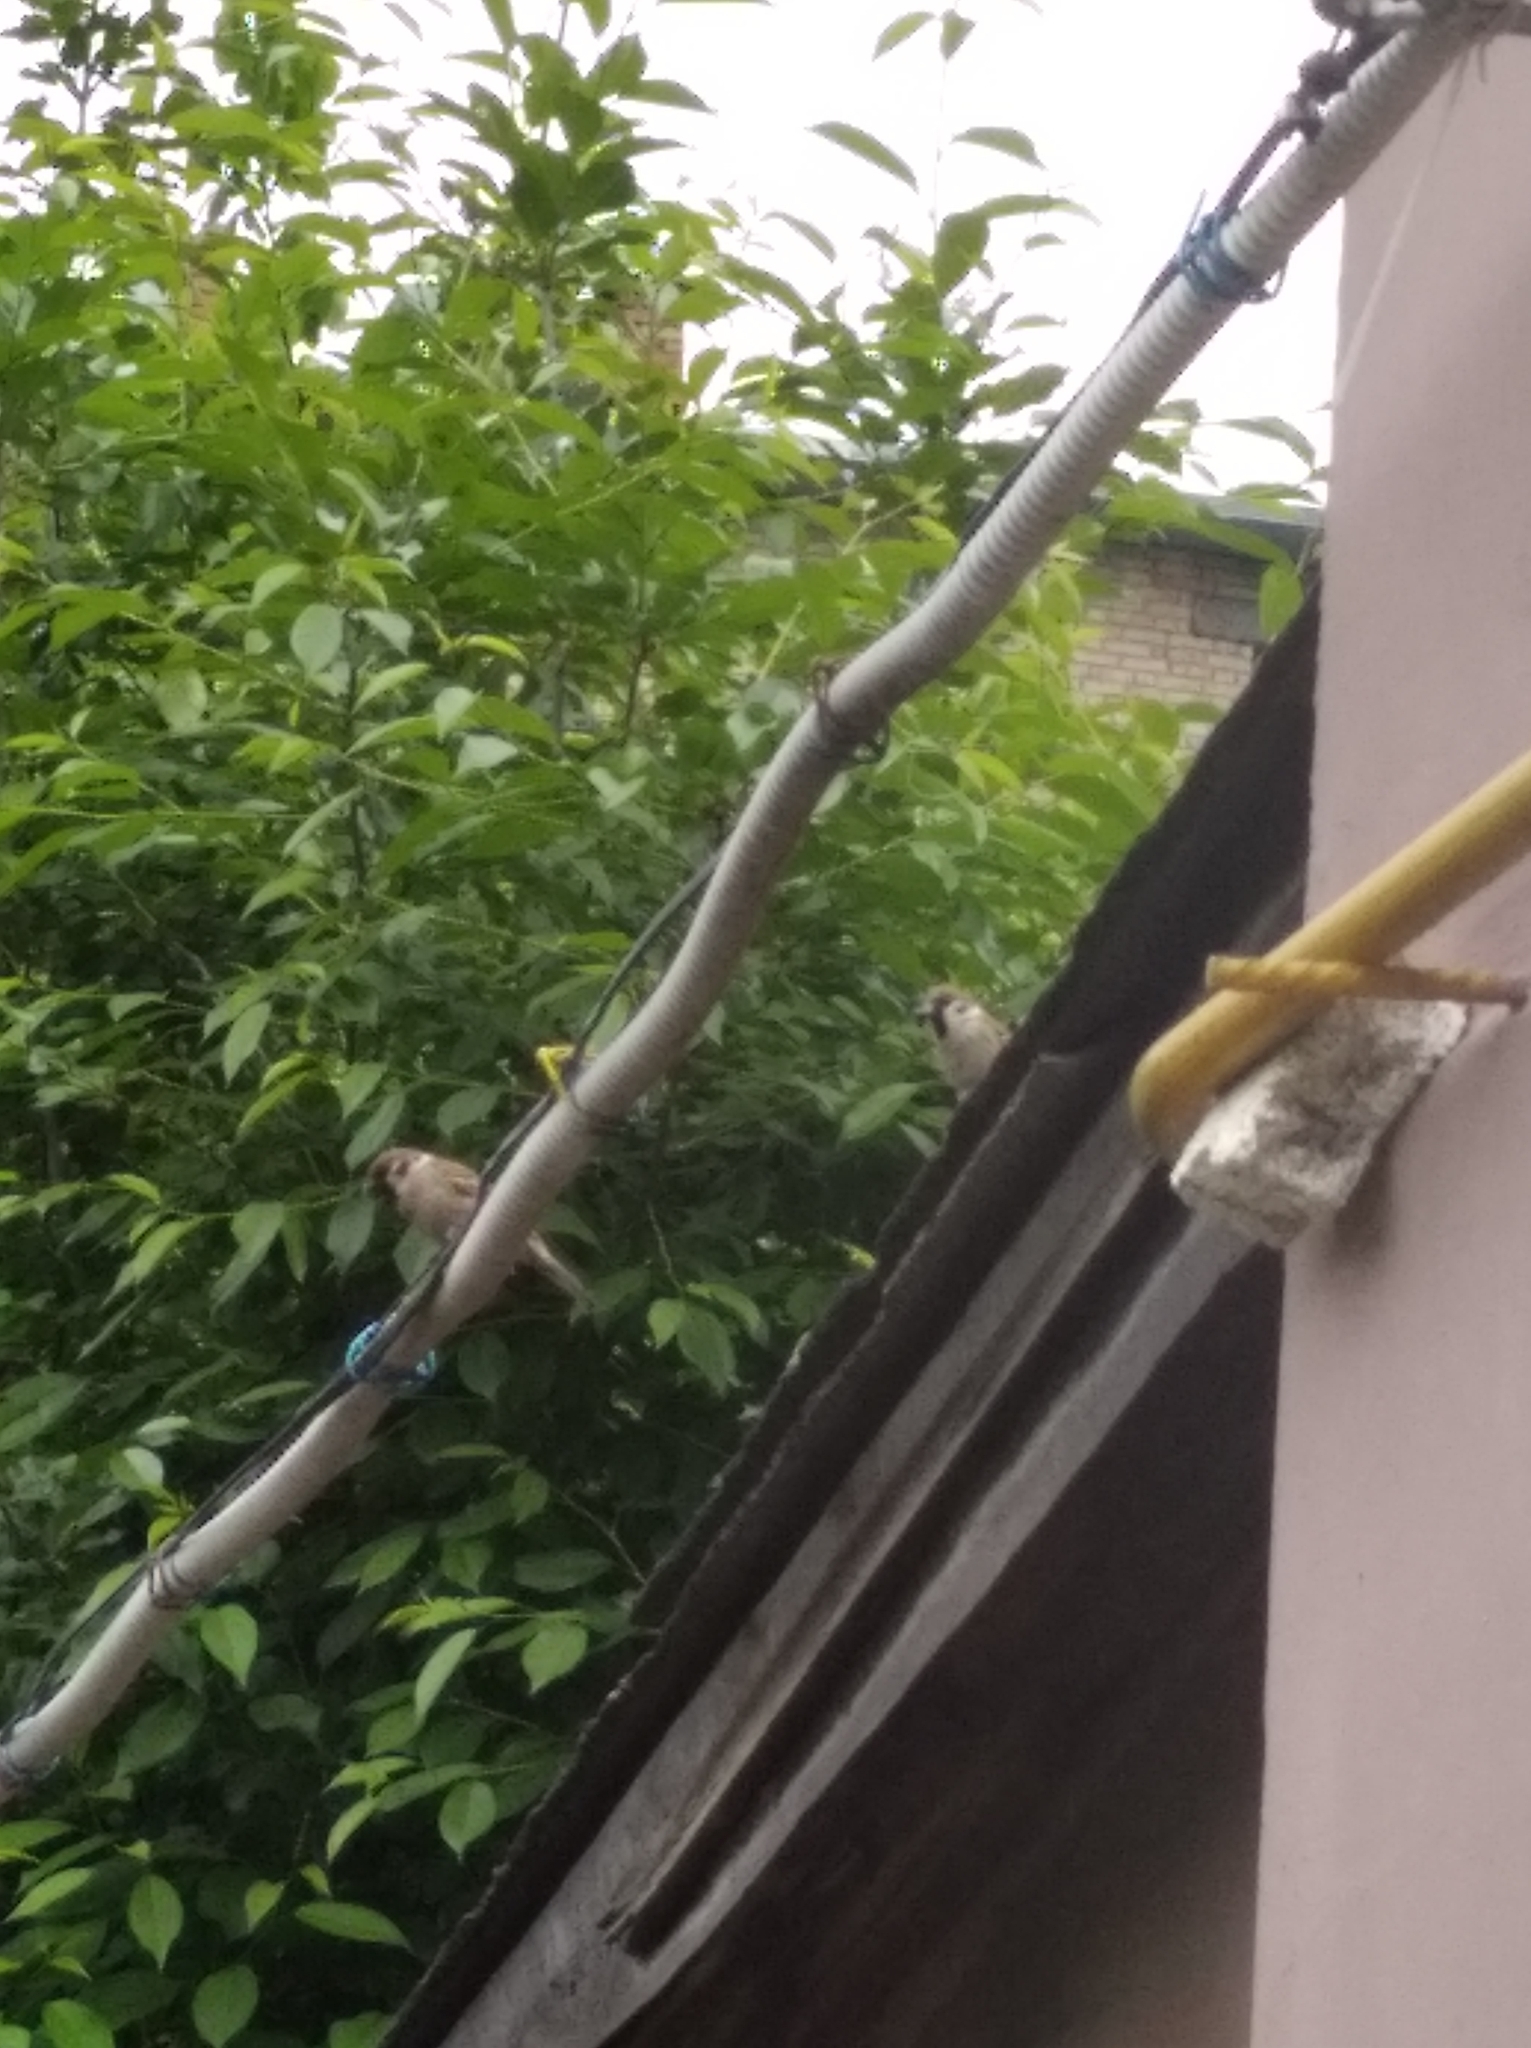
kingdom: Animalia
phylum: Chordata
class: Aves
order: Passeriformes
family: Passeridae
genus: Passer
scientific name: Passer montanus
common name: Eurasian tree sparrow
